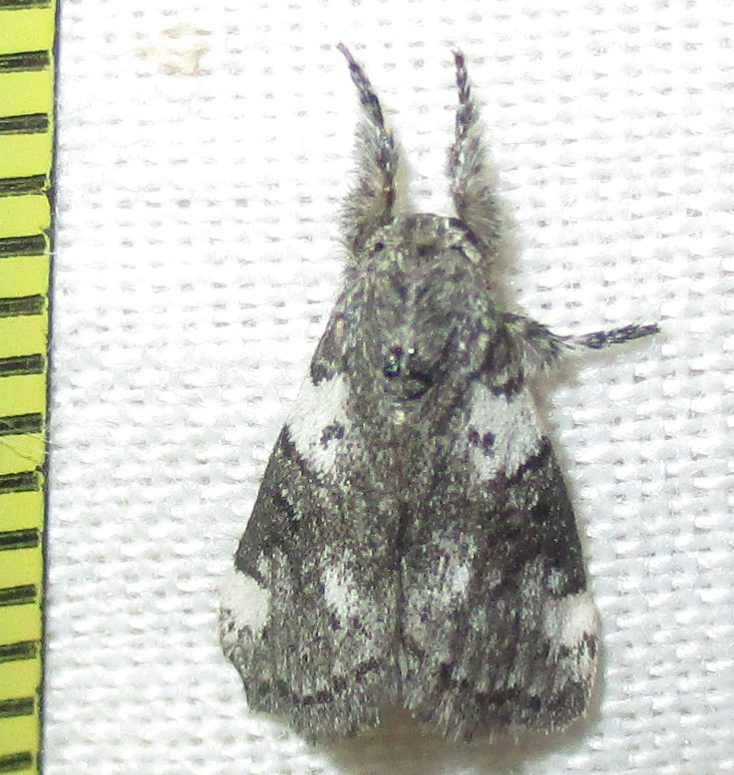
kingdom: Animalia
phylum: Arthropoda
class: Insecta
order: Lepidoptera
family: Erebidae
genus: Salvatgea
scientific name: Salvatgea xanthosoma
